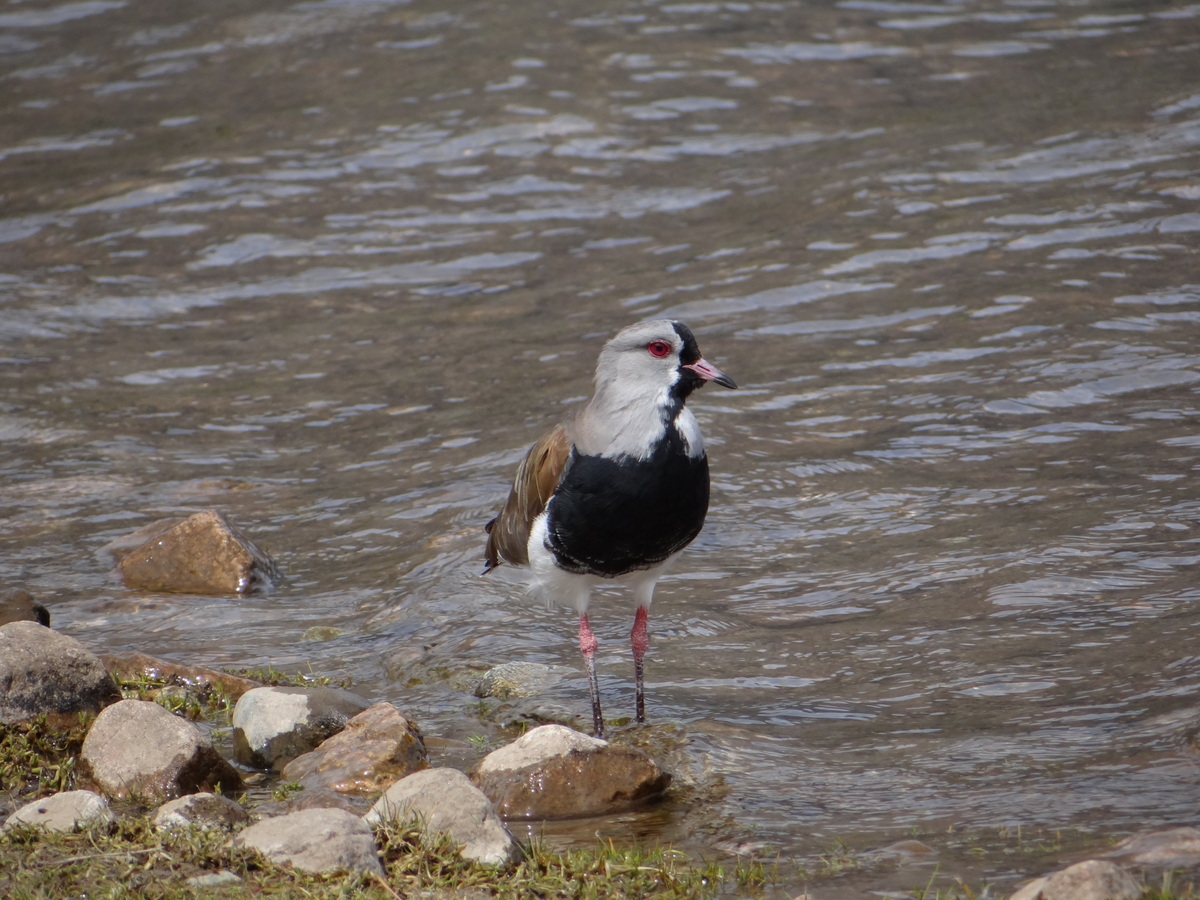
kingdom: Animalia
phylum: Chordata
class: Aves
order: Charadriiformes
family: Charadriidae
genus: Vanellus
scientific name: Vanellus chilensis
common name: Southern lapwing
